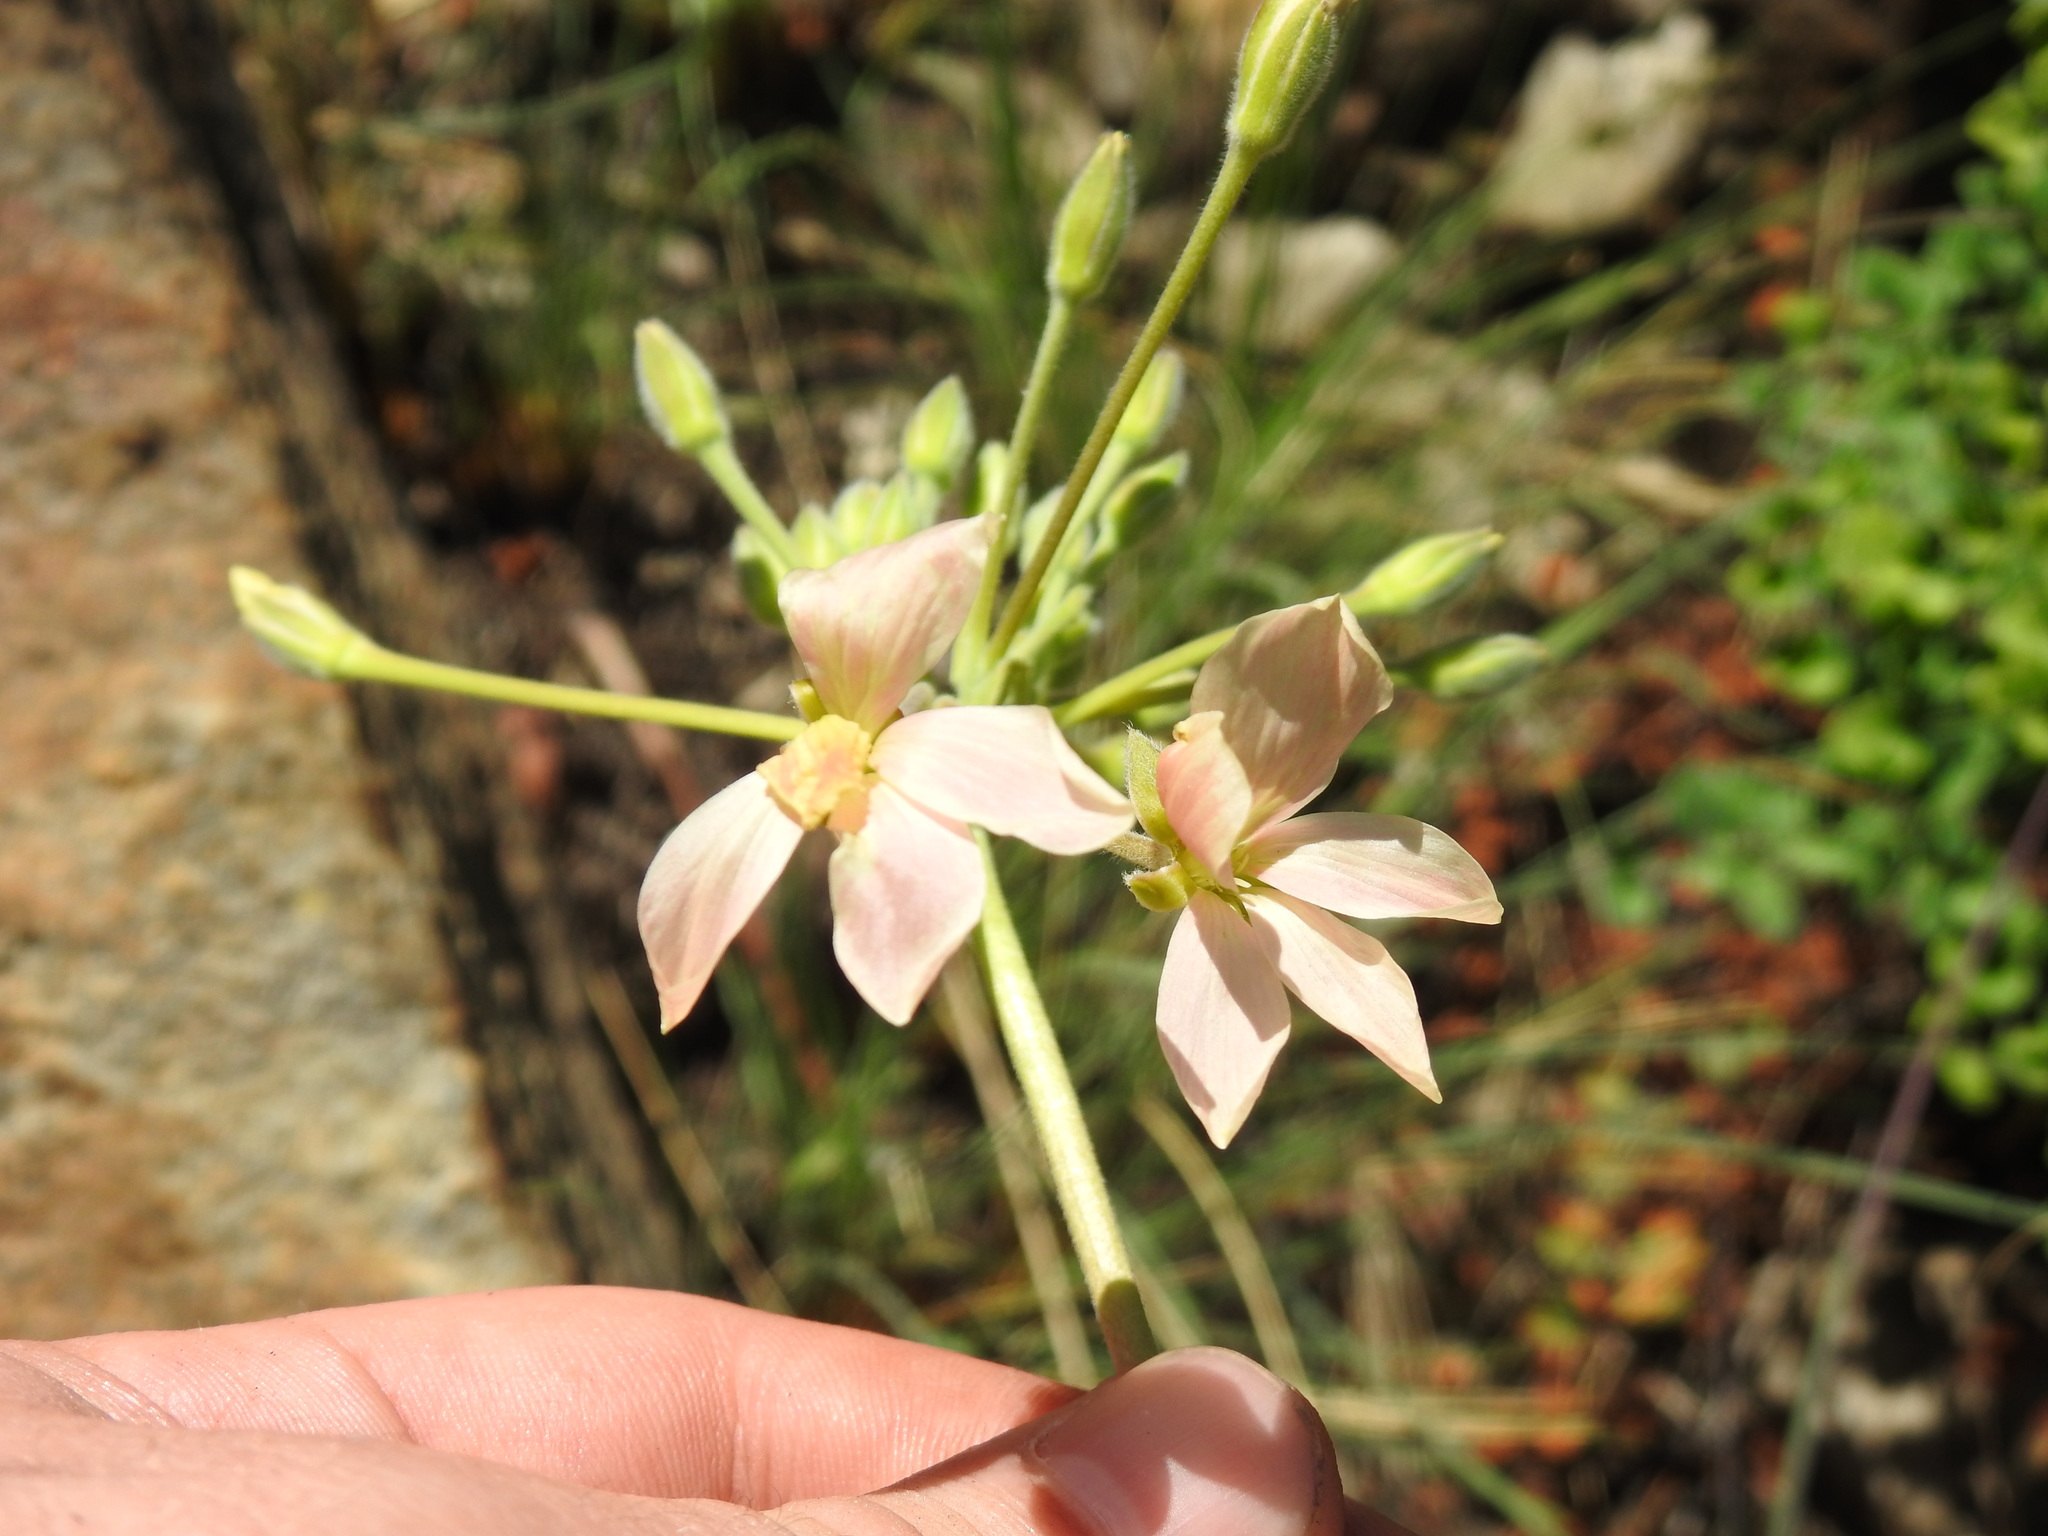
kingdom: Plantae
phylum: Tracheophyta
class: Magnoliopsida
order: Geraniales
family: Geraniaceae
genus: Pelargonium
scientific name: Pelargonium luridum
